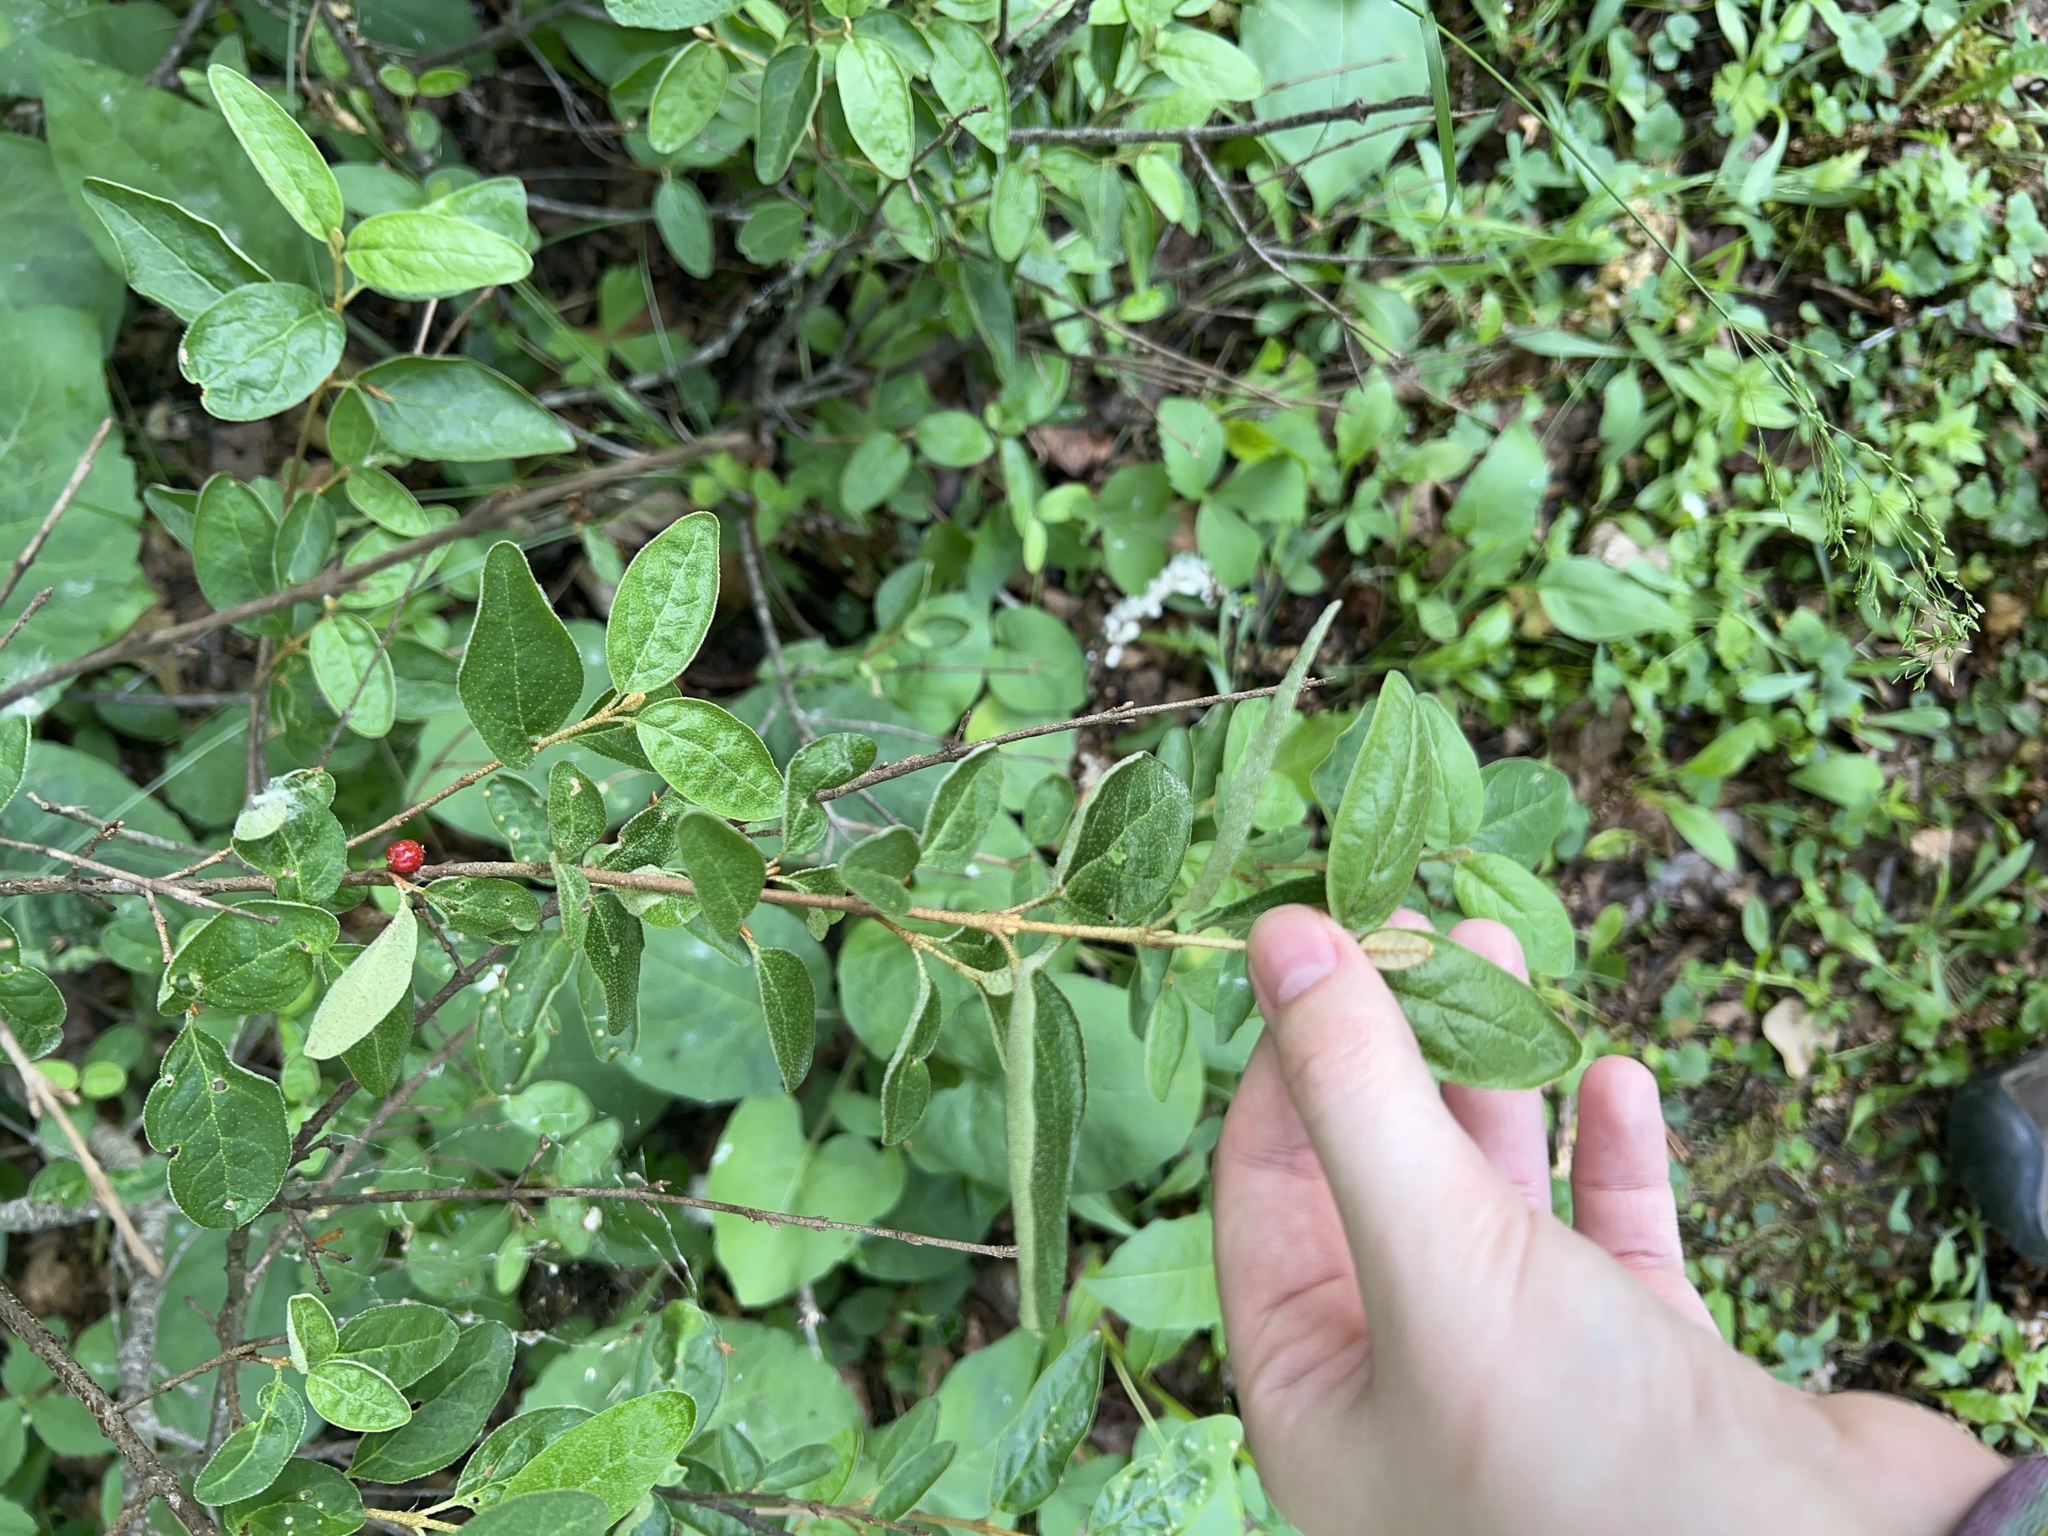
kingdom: Plantae
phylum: Tracheophyta
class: Magnoliopsida
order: Rosales
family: Elaeagnaceae
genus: Shepherdia
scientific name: Shepherdia canadensis
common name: Soapberry
